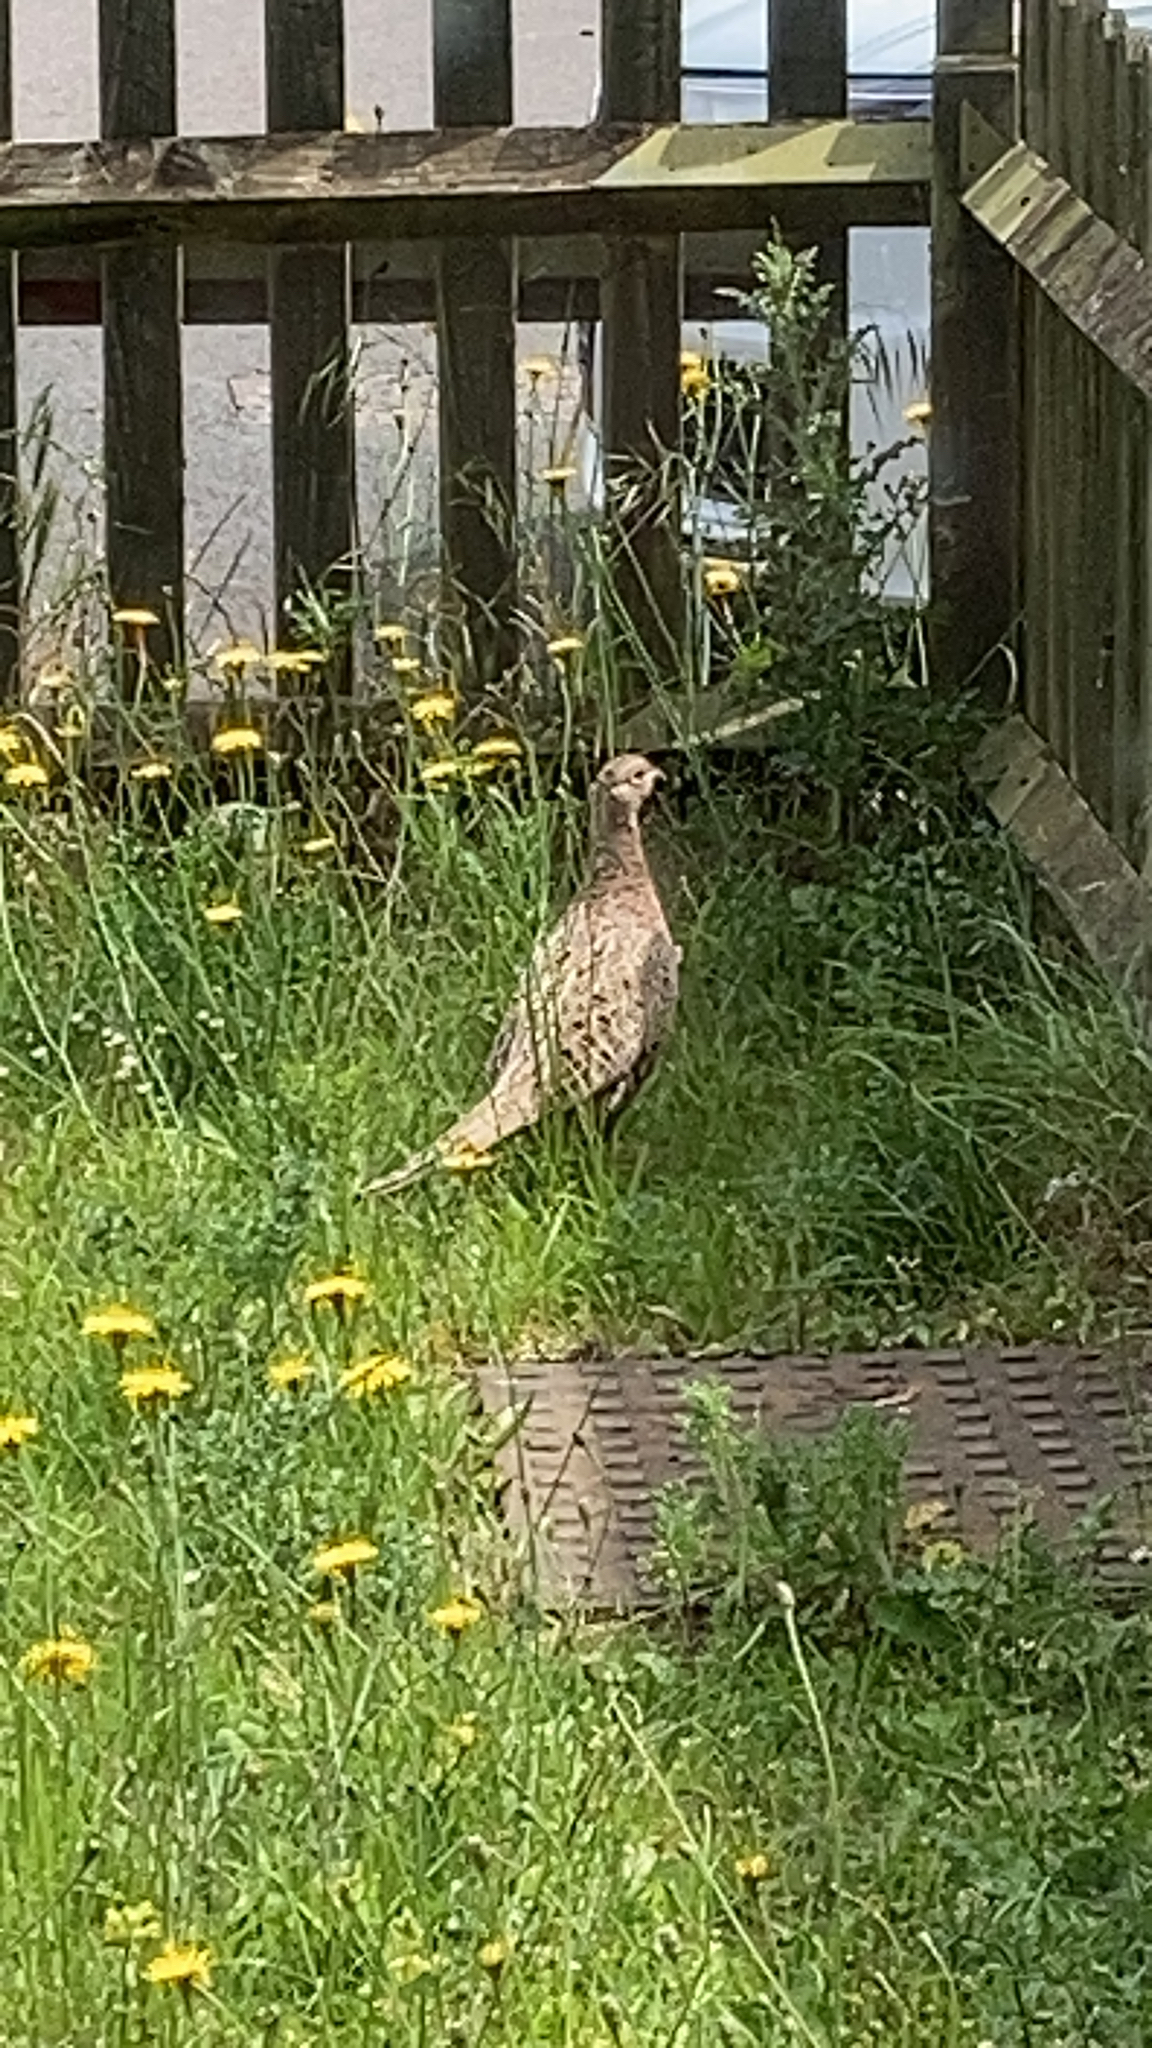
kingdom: Animalia
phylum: Chordata
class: Aves
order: Galliformes
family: Phasianidae
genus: Phasianus
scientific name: Phasianus colchicus
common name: Common pheasant
